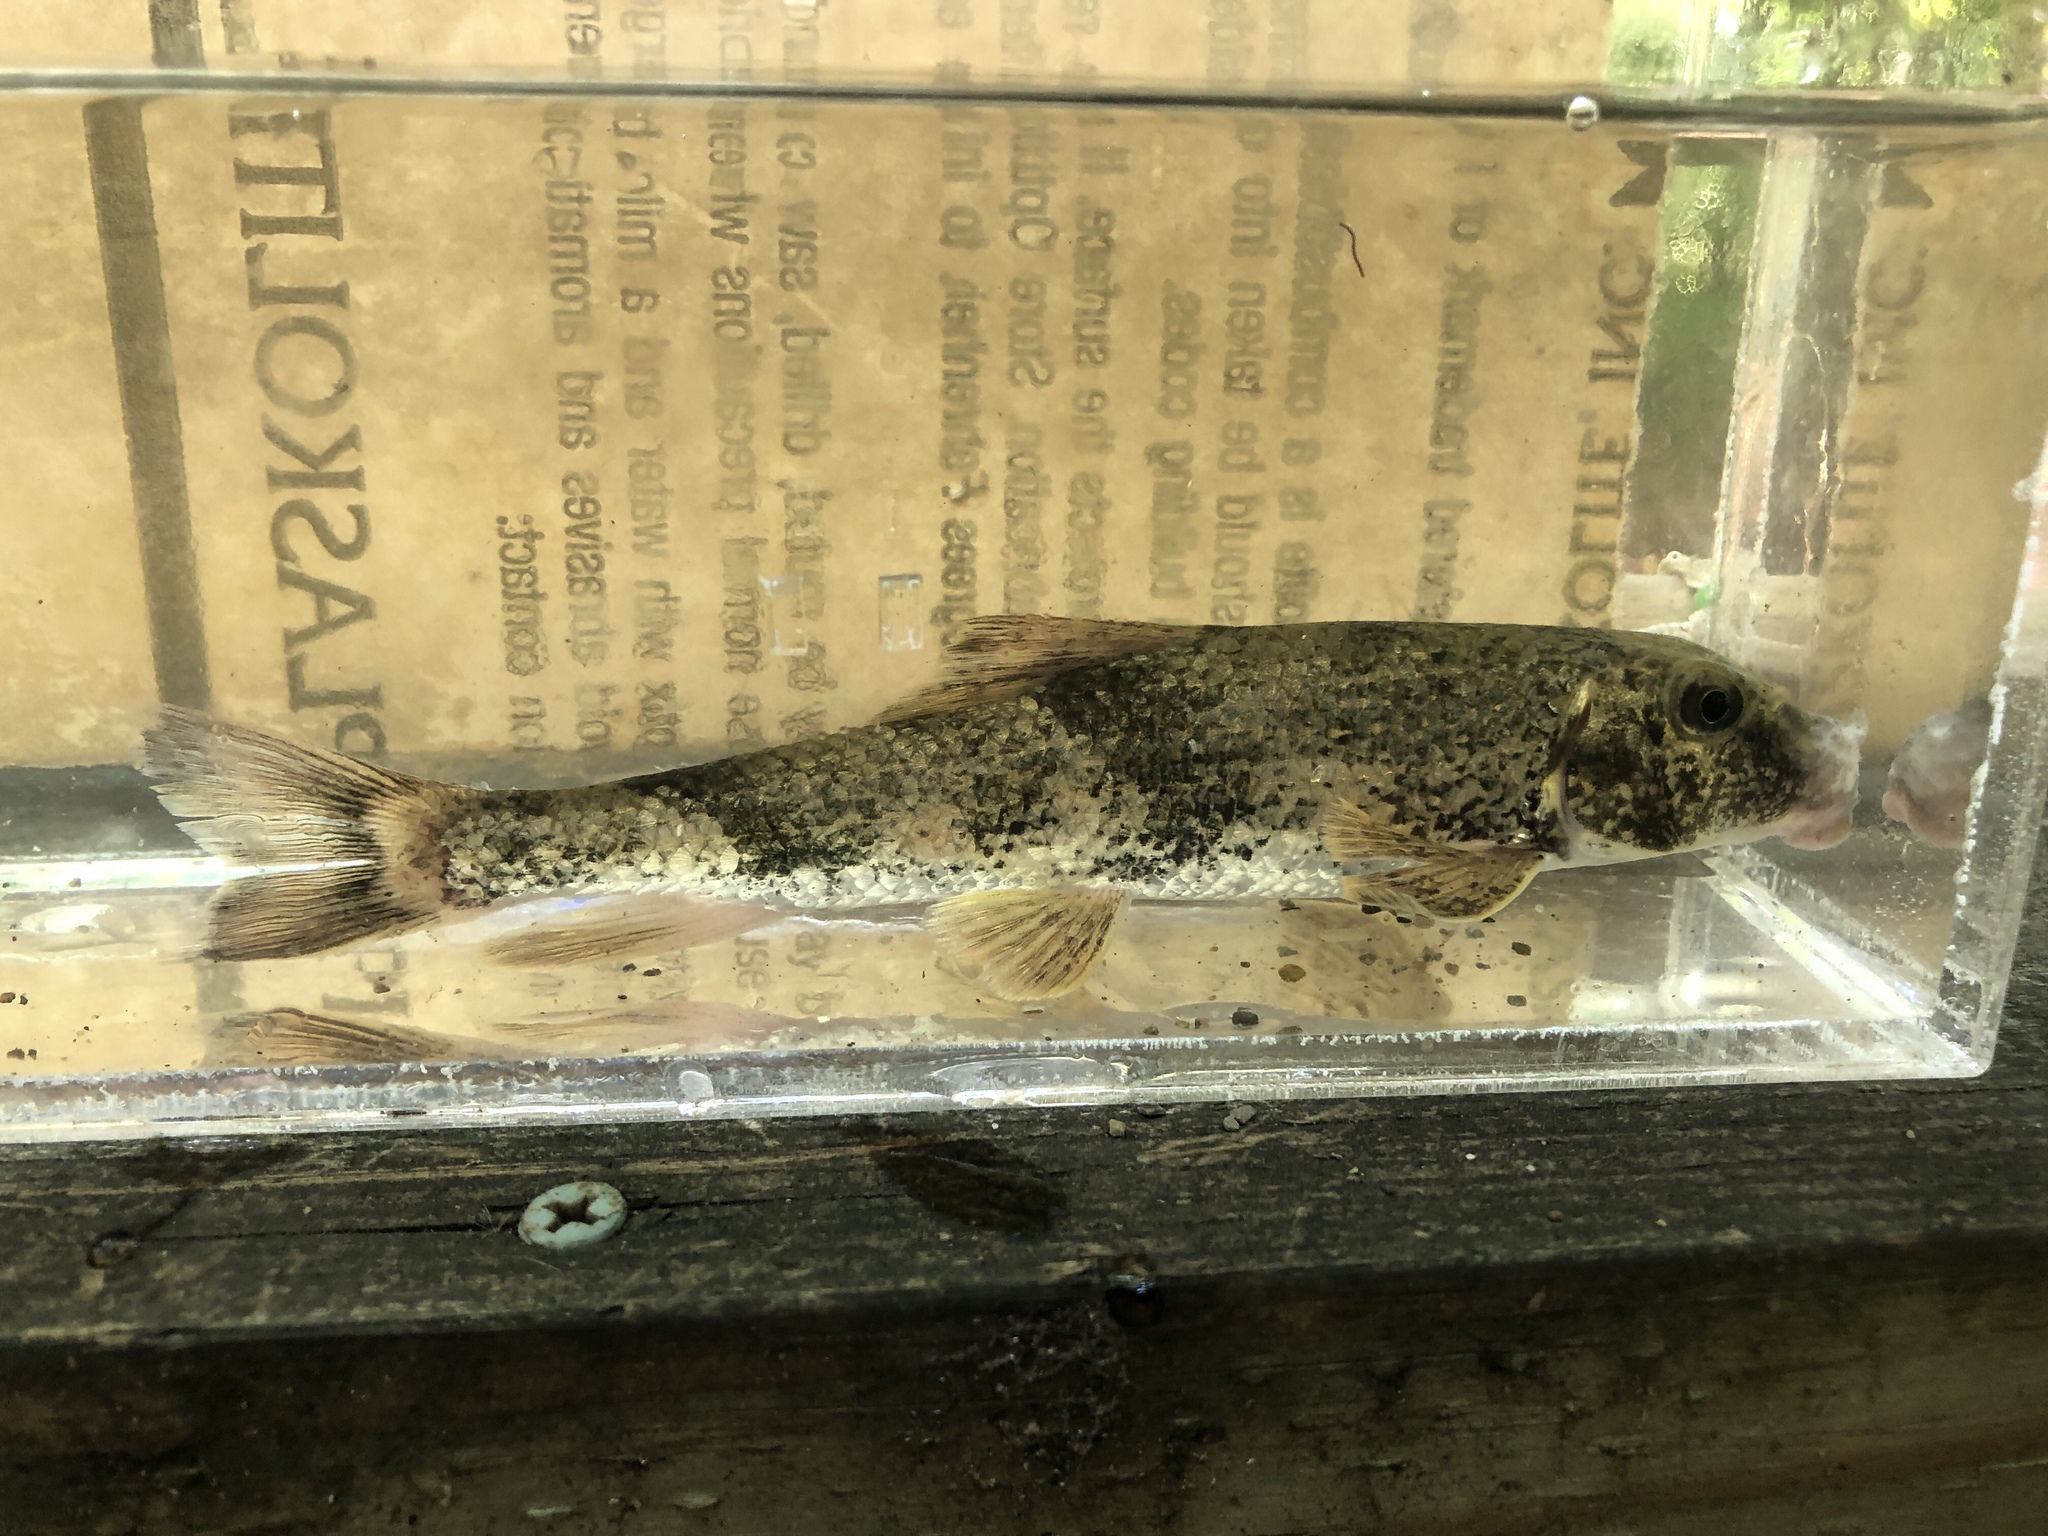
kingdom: Animalia
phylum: Chordata
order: Cypriniformes
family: Catostomidae
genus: Hypentelium
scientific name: Hypentelium nigricans
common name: Northern hog sucker
